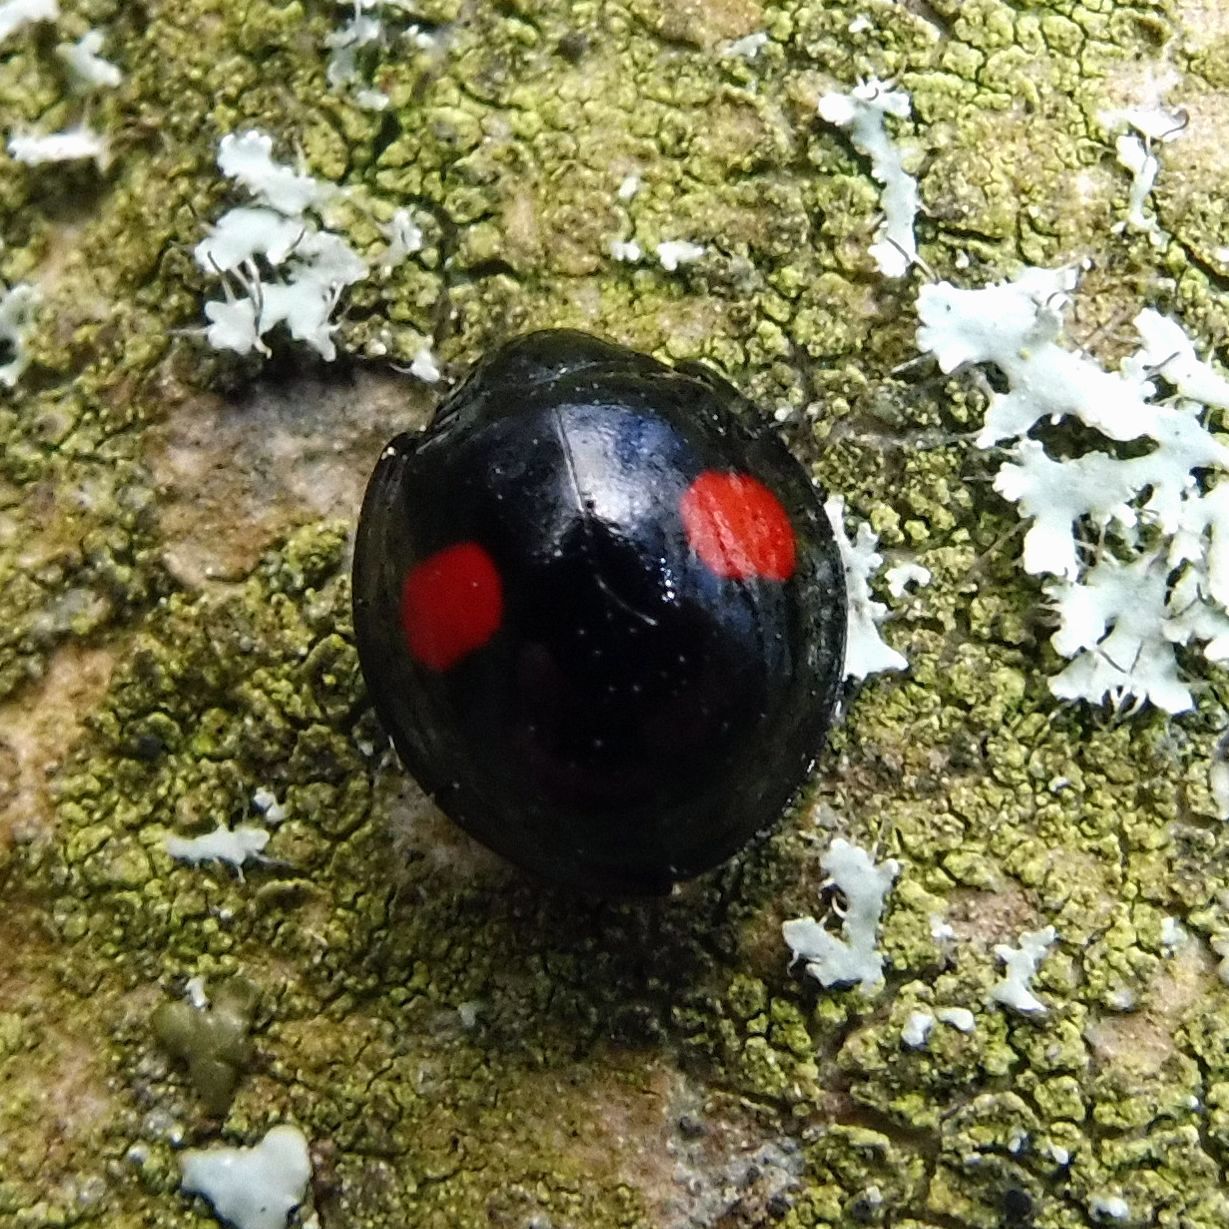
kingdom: Animalia
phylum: Arthropoda
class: Insecta
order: Coleoptera
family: Coccinellidae
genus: Chilocorus
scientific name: Chilocorus renipustulatus
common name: Kidney-spot ladybird
